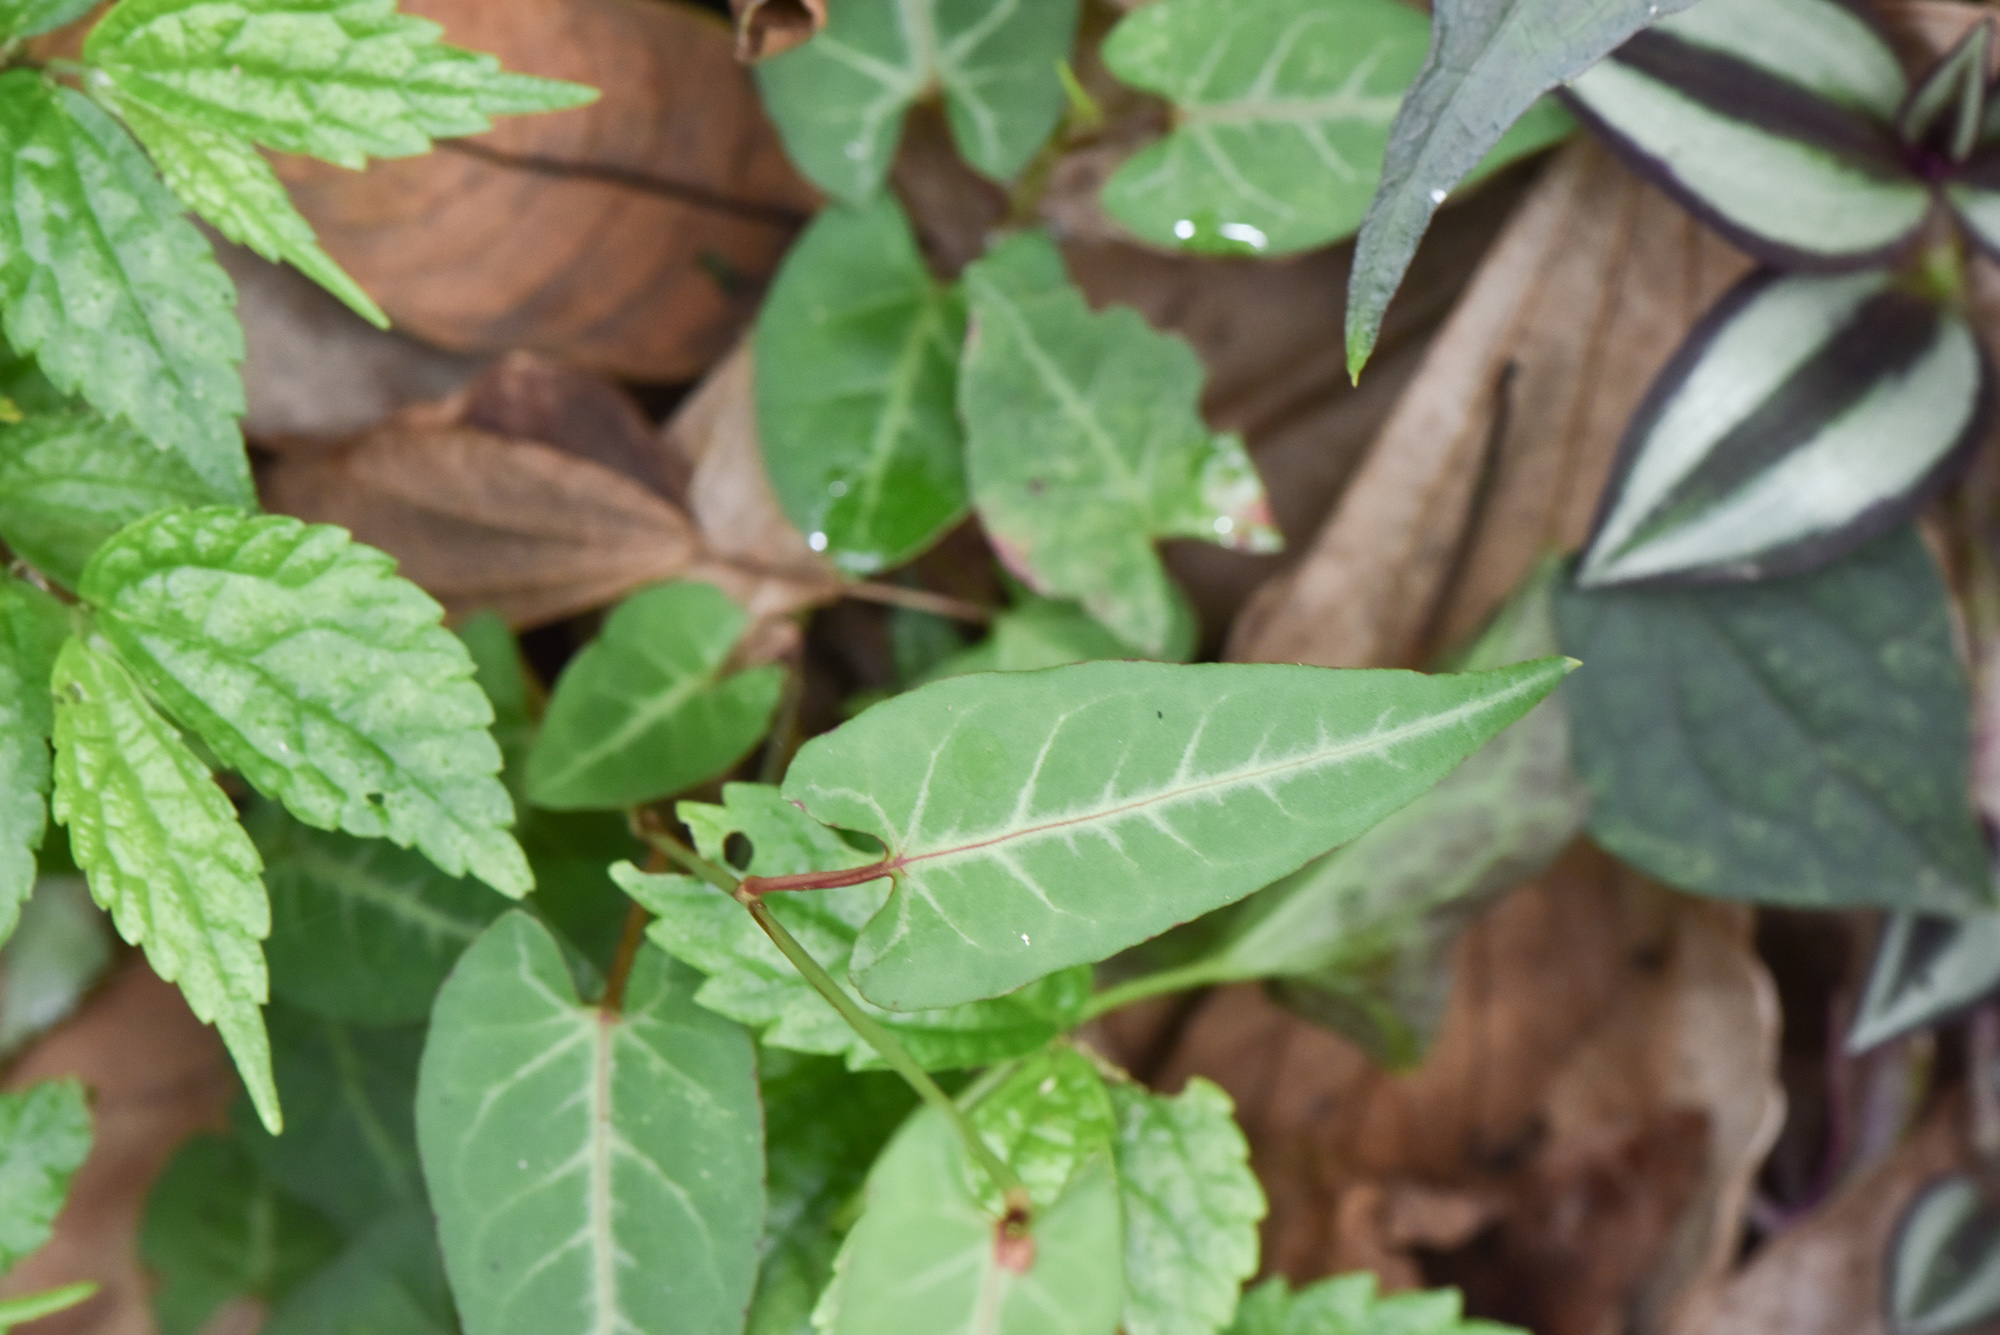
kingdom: Plantae
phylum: Tracheophyta
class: Magnoliopsida
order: Caryophyllales
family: Polygonaceae
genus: Reynoutria
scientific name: Reynoutria multiflora
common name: Chinese fleeceflower
